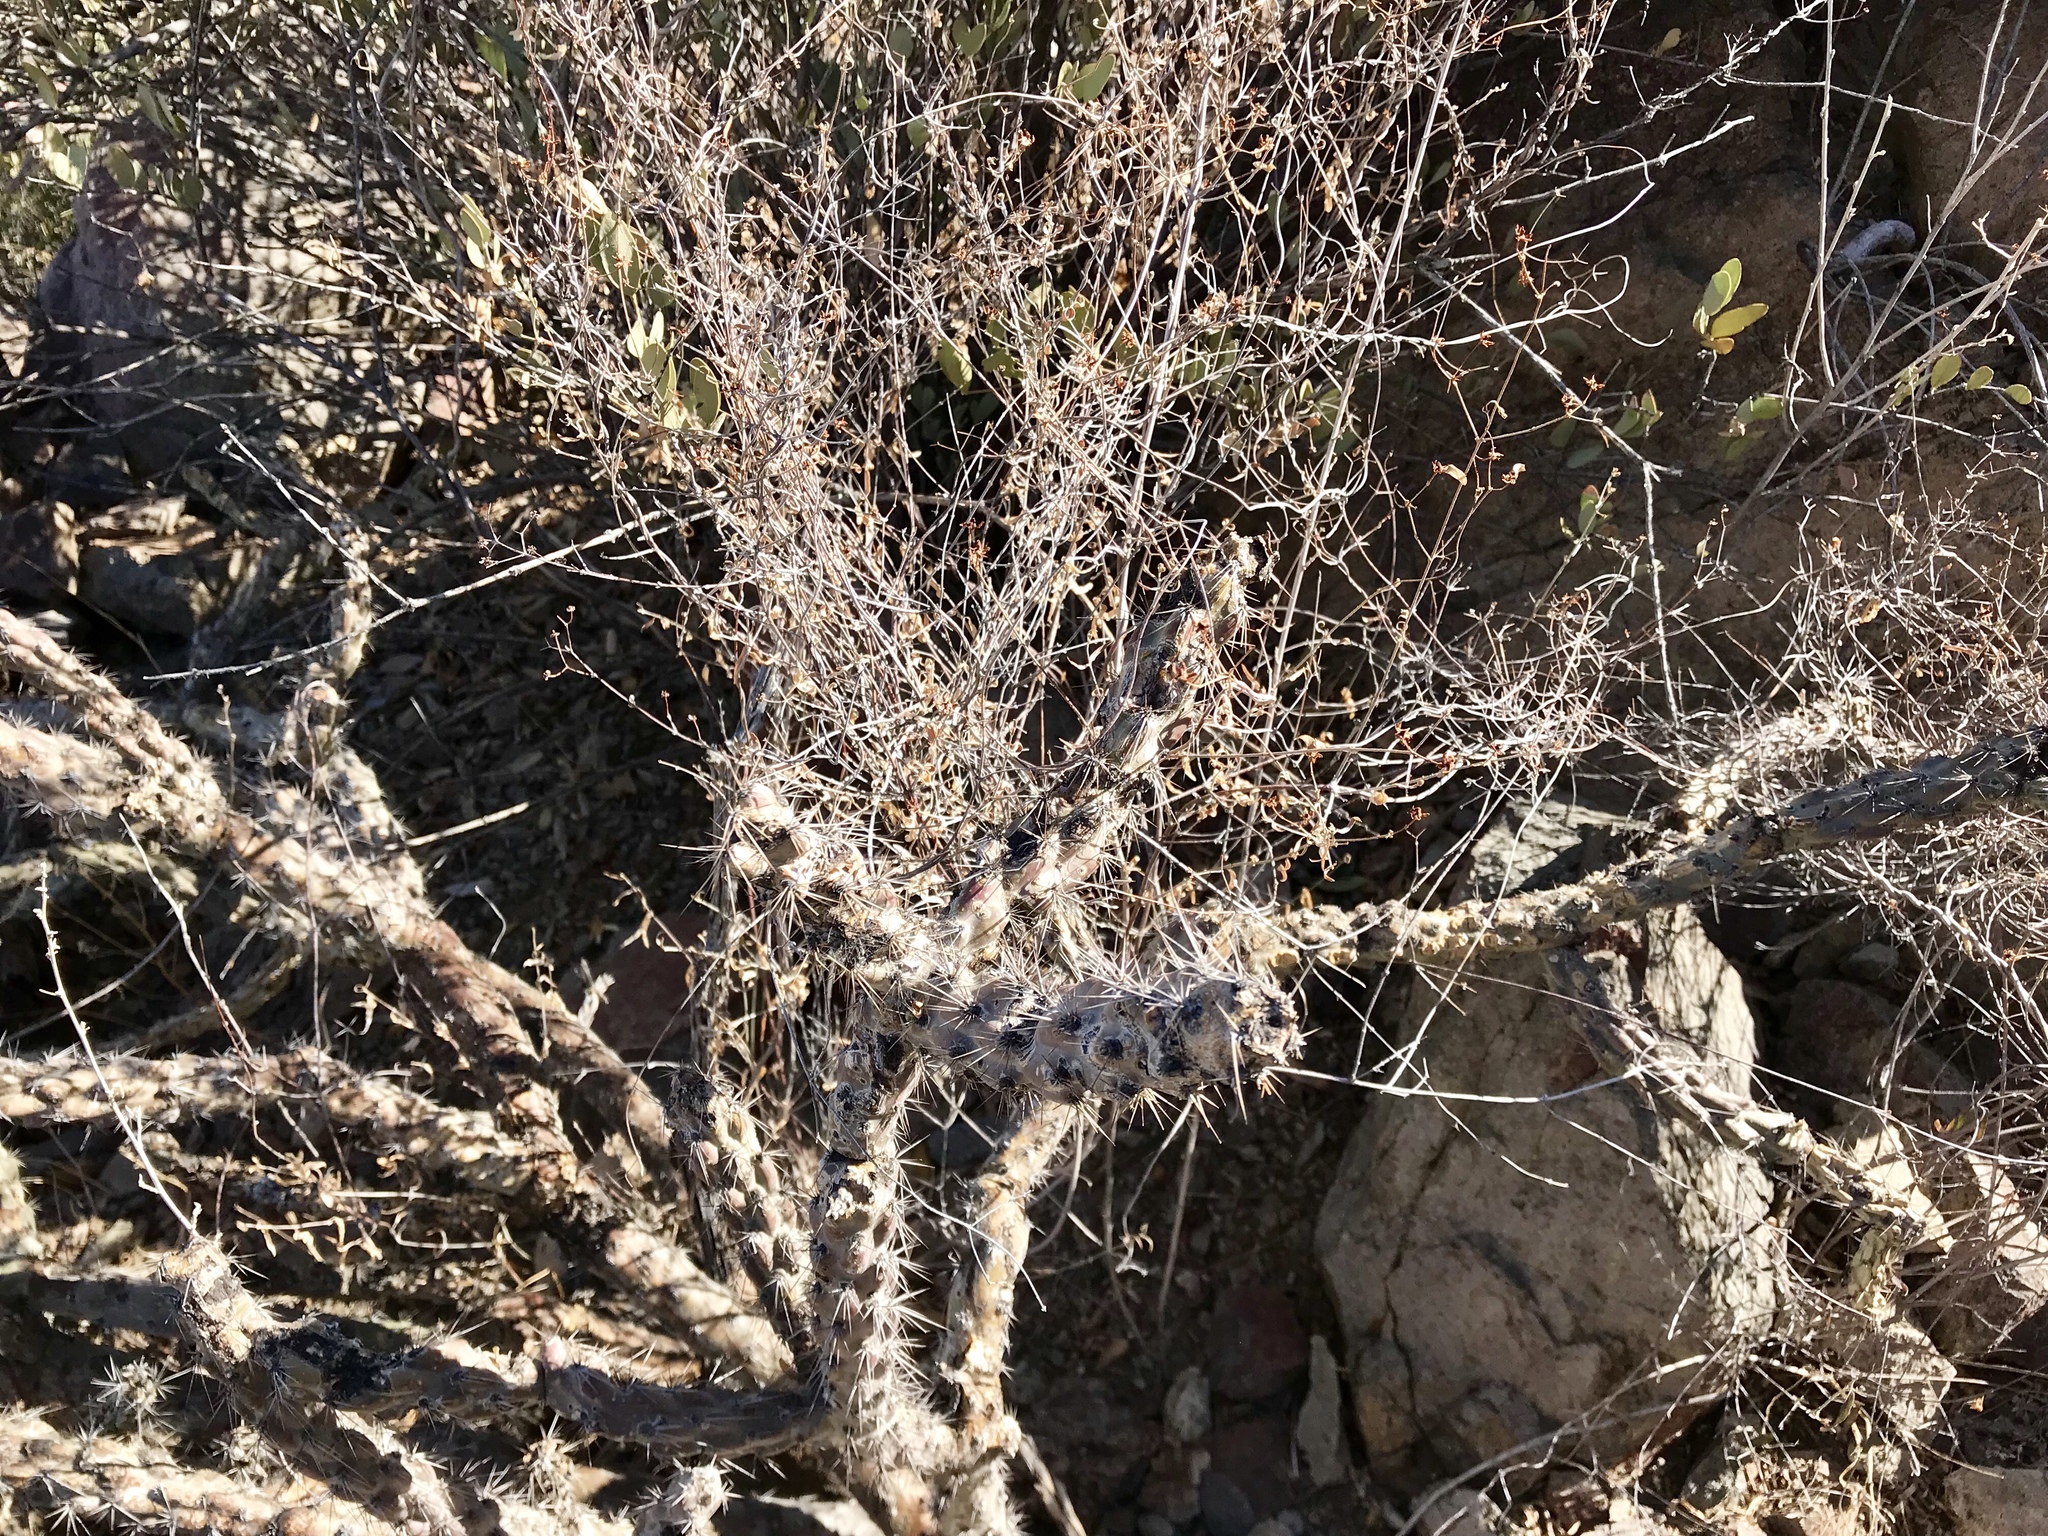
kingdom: Plantae
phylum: Tracheophyta
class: Magnoliopsida
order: Caryophyllales
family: Cactaceae
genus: Cylindropuntia
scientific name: Cylindropuntia acanthocarpa
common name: Buckhorn cholla
